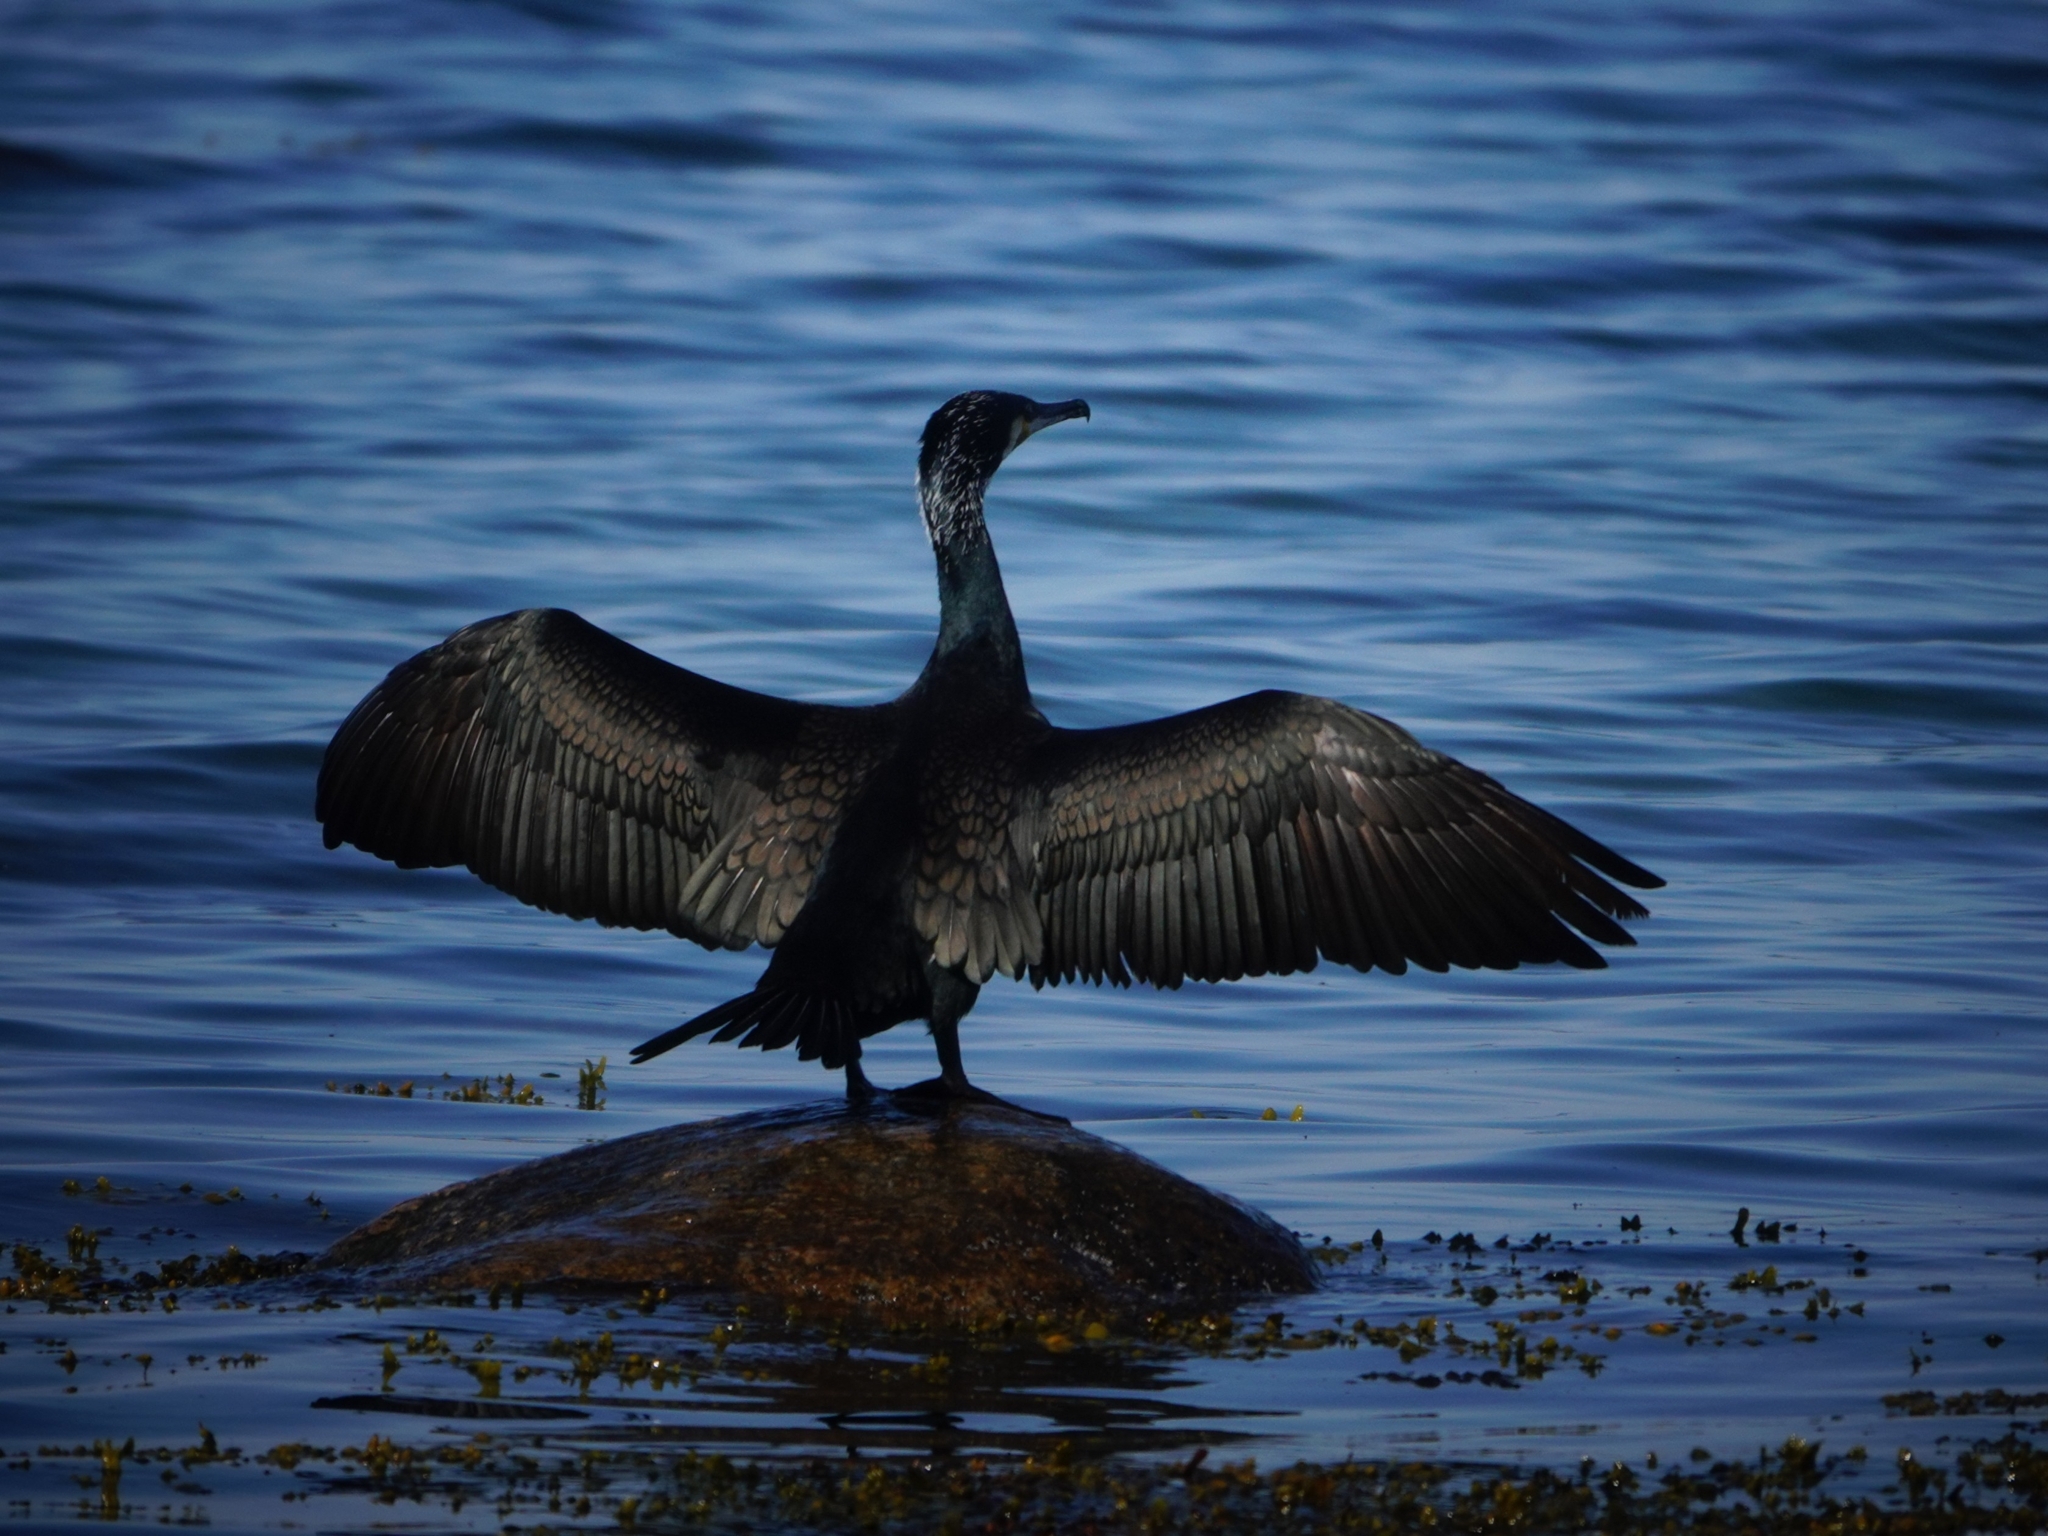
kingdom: Animalia
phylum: Chordata
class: Aves
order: Suliformes
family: Phalacrocoracidae
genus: Phalacrocorax
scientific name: Phalacrocorax carbo
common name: Great cormorant
